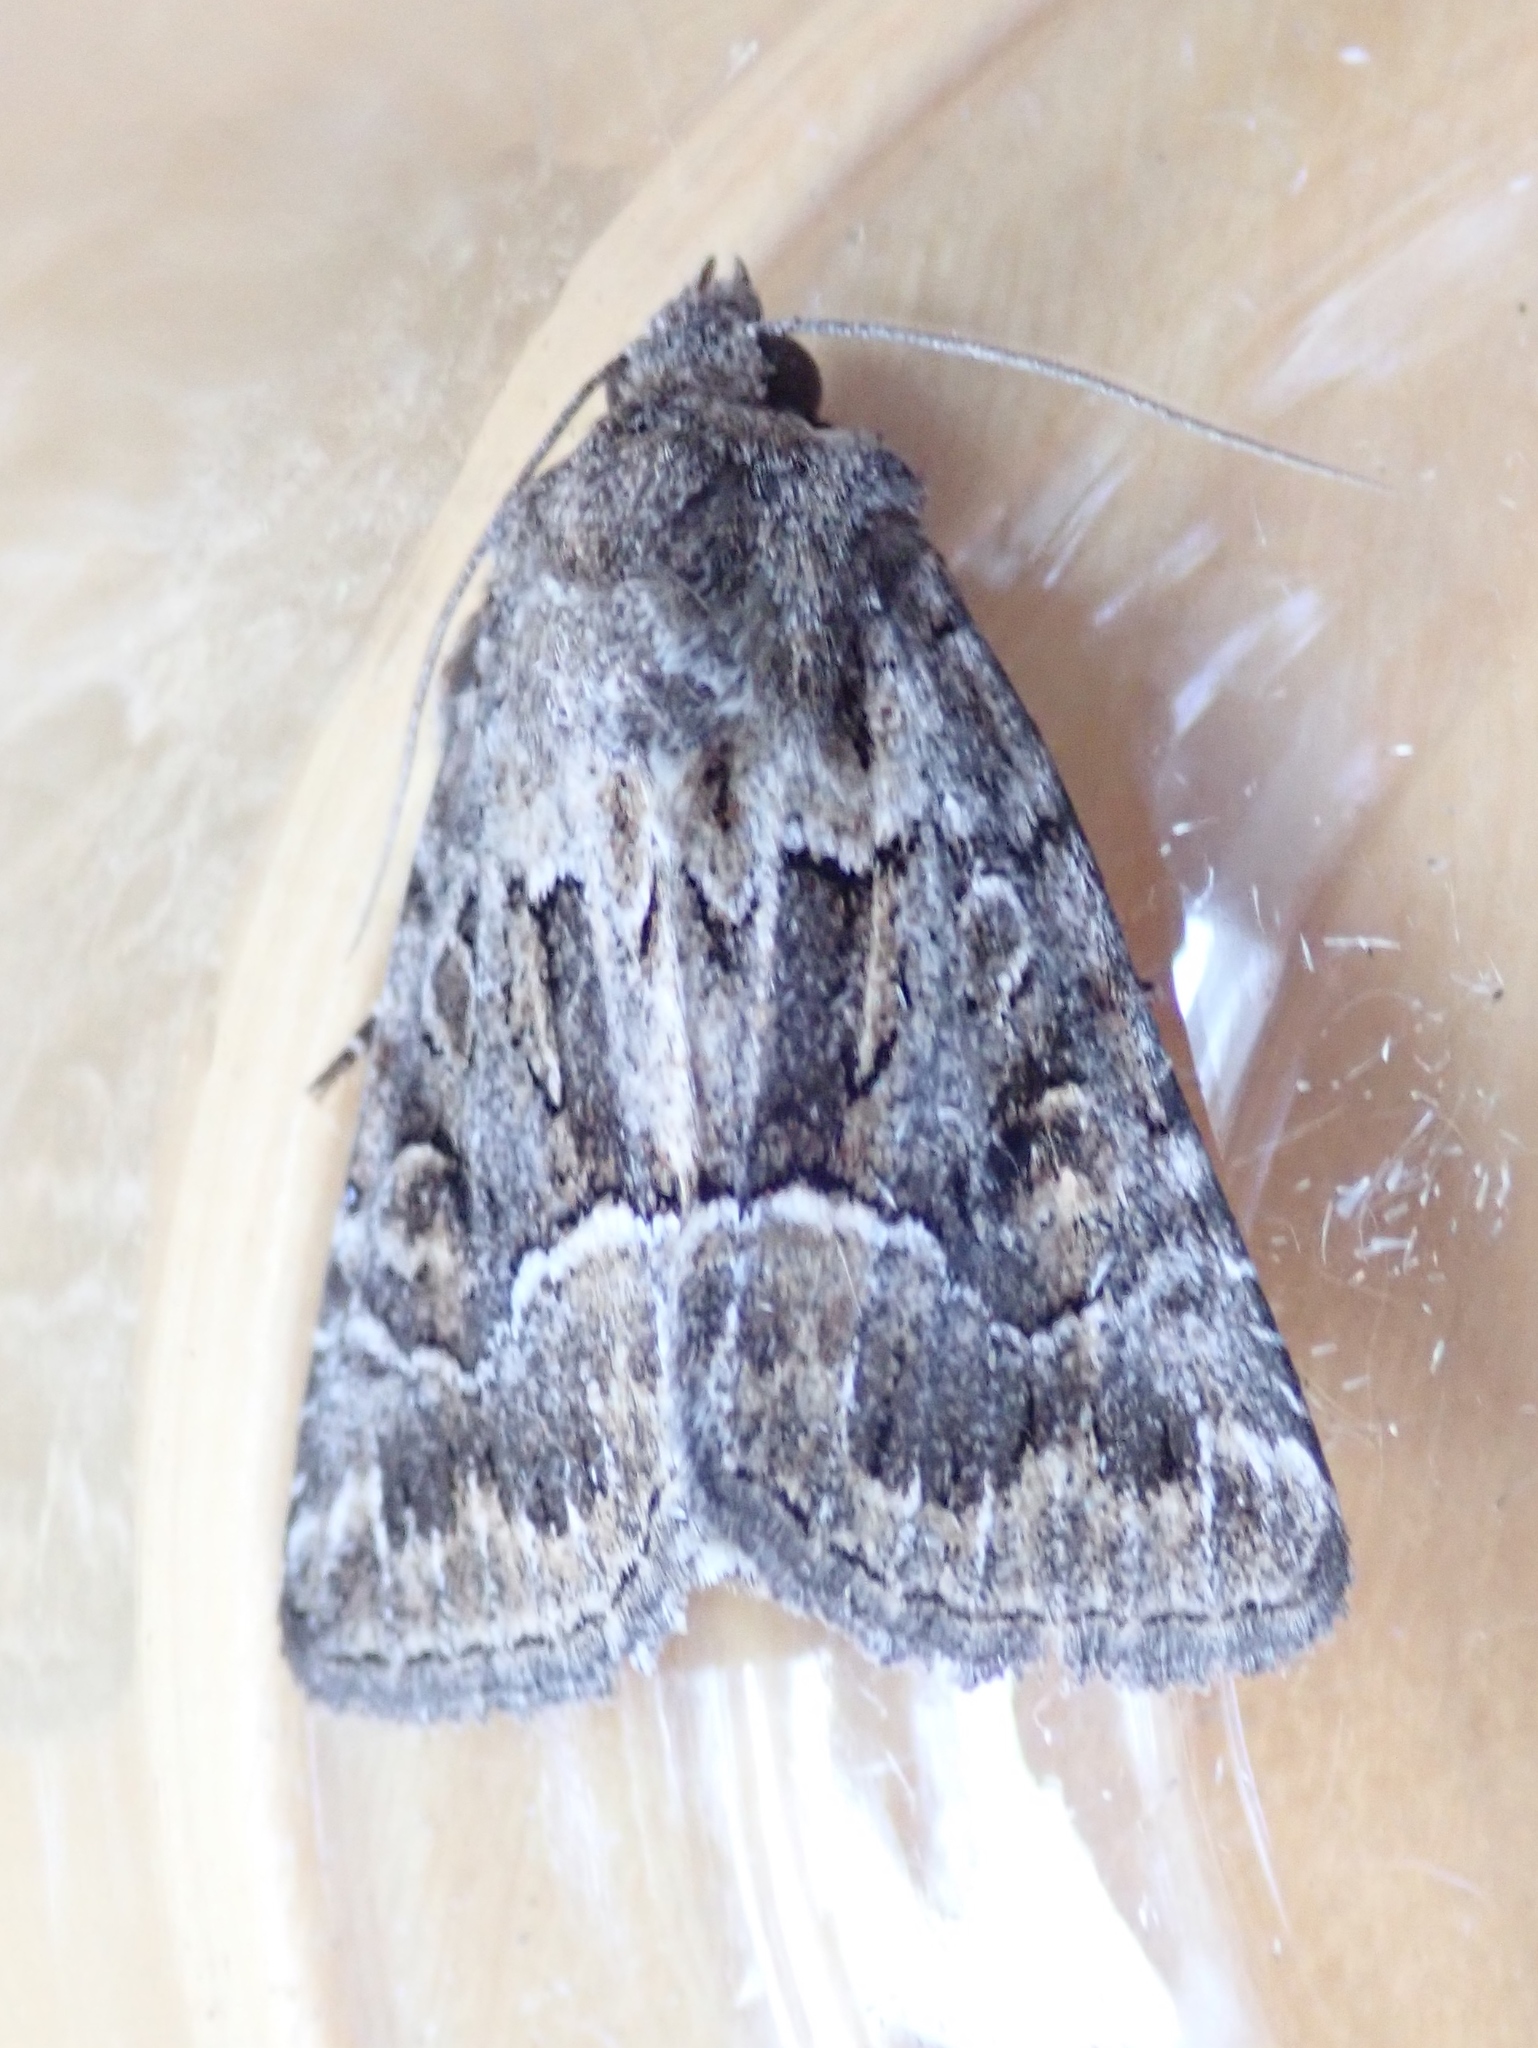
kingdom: Animalia
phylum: Arthropoda
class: Insecta
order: Lepidoptera
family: Noctuidae
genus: Thalpophila
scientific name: Thalpophila matura
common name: Straw underwing
